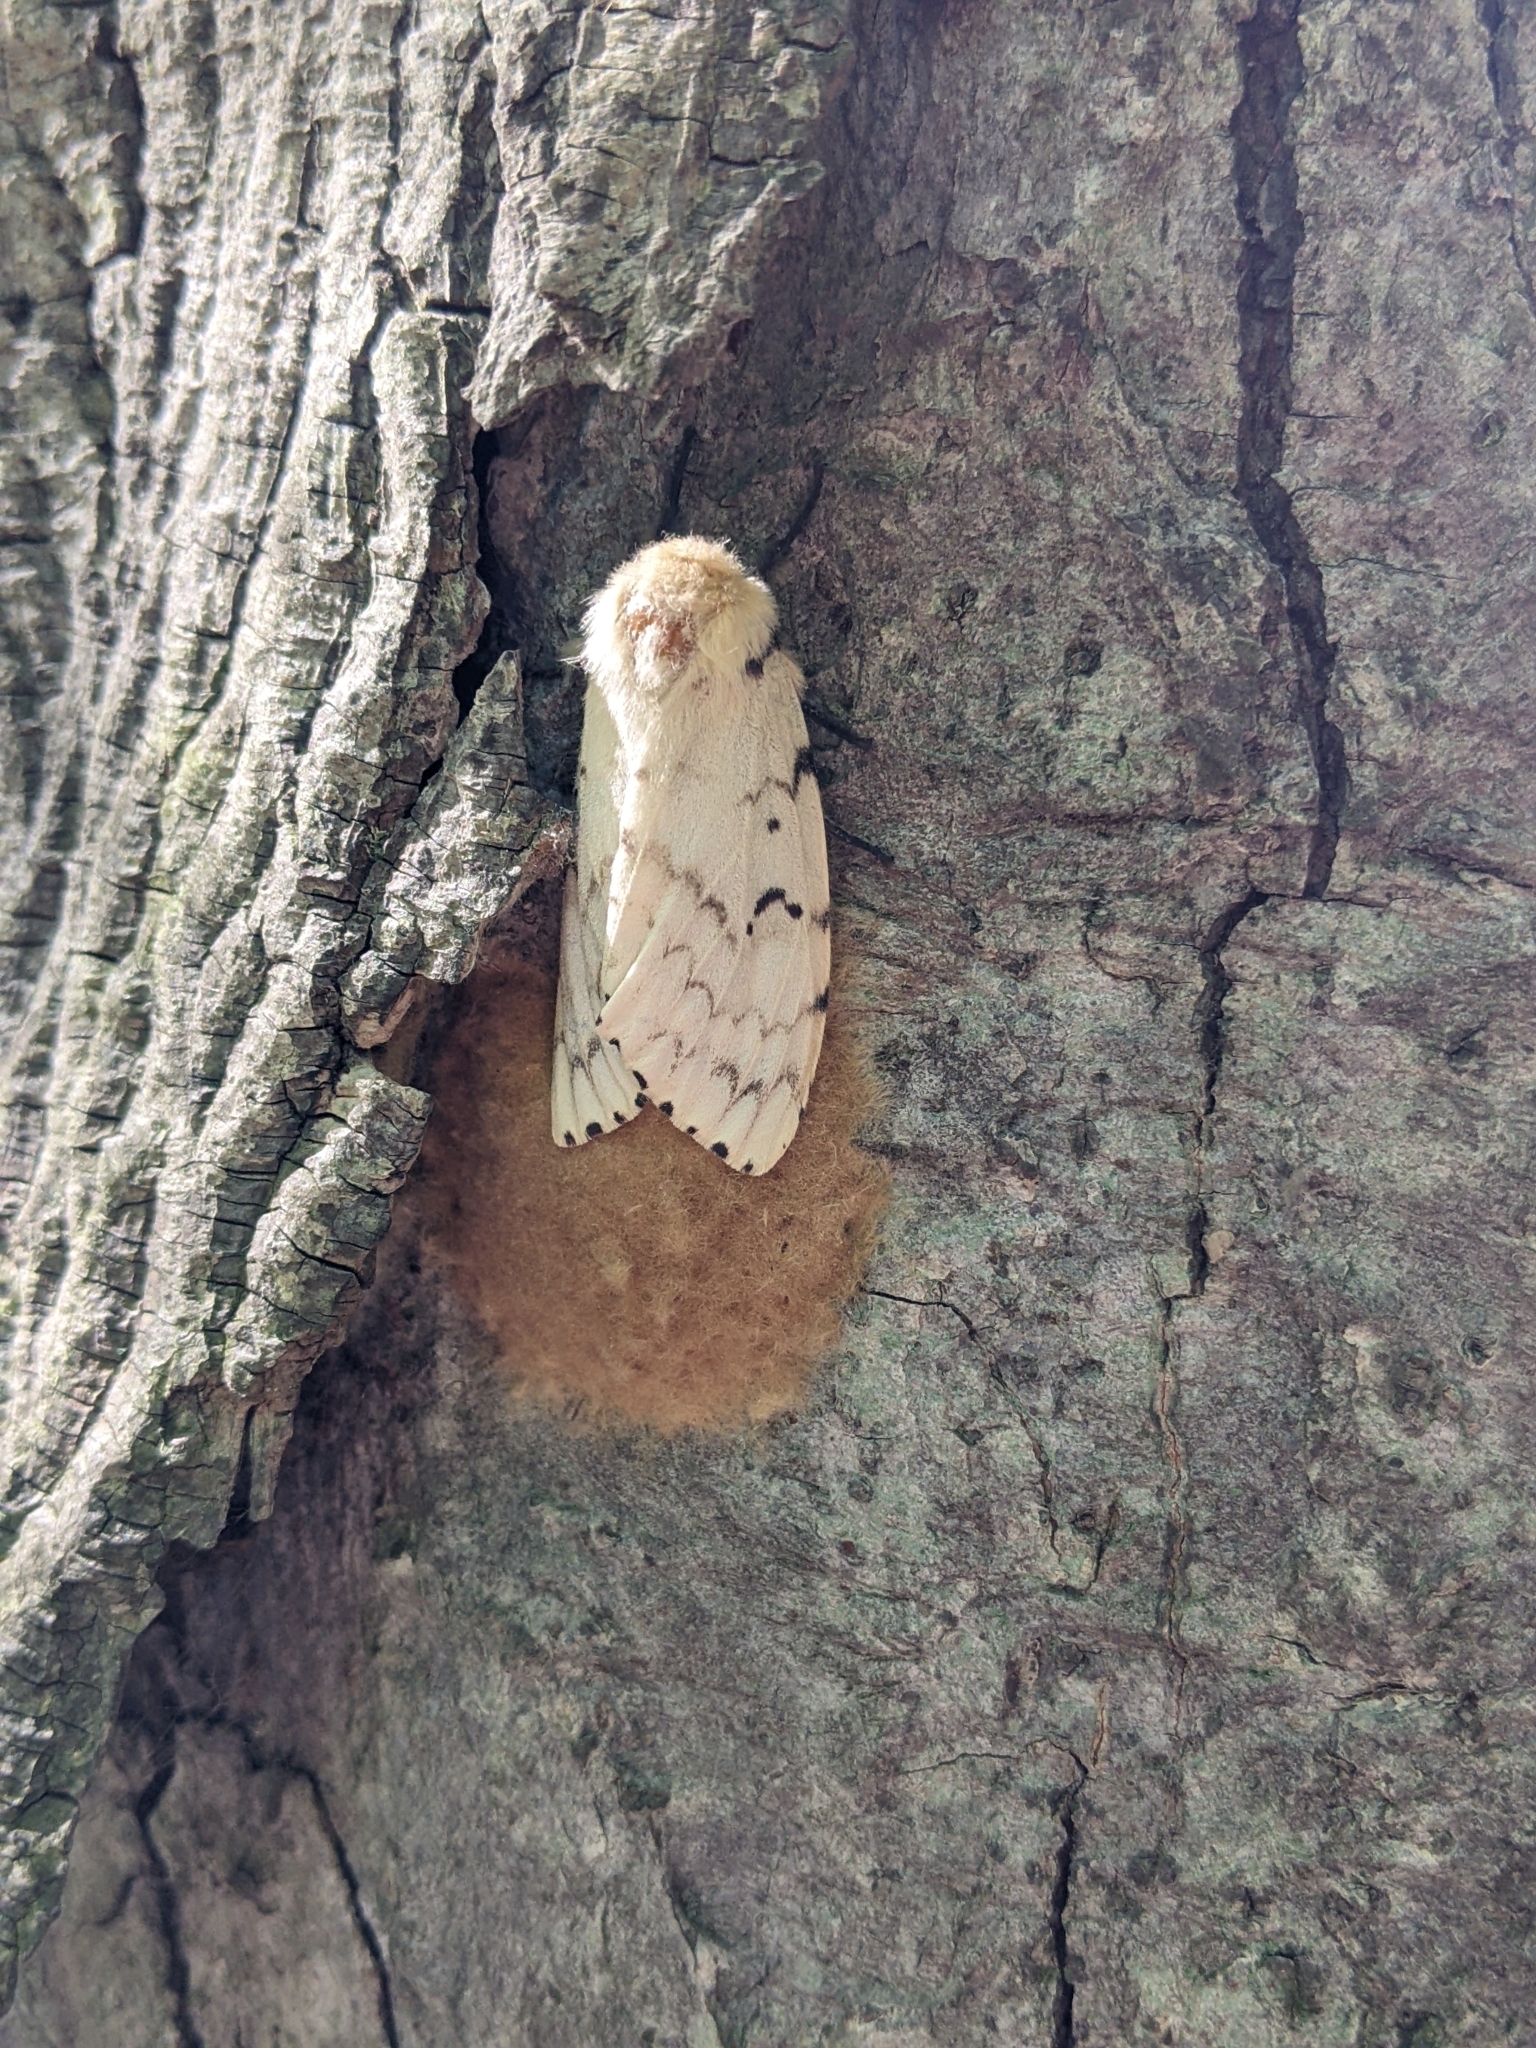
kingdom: Animalia
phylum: Arthropoda
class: Insecta
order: Lepidoptera
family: Erebidae
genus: Lymantria
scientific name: Lymantria dispar
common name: Gypsy moth
